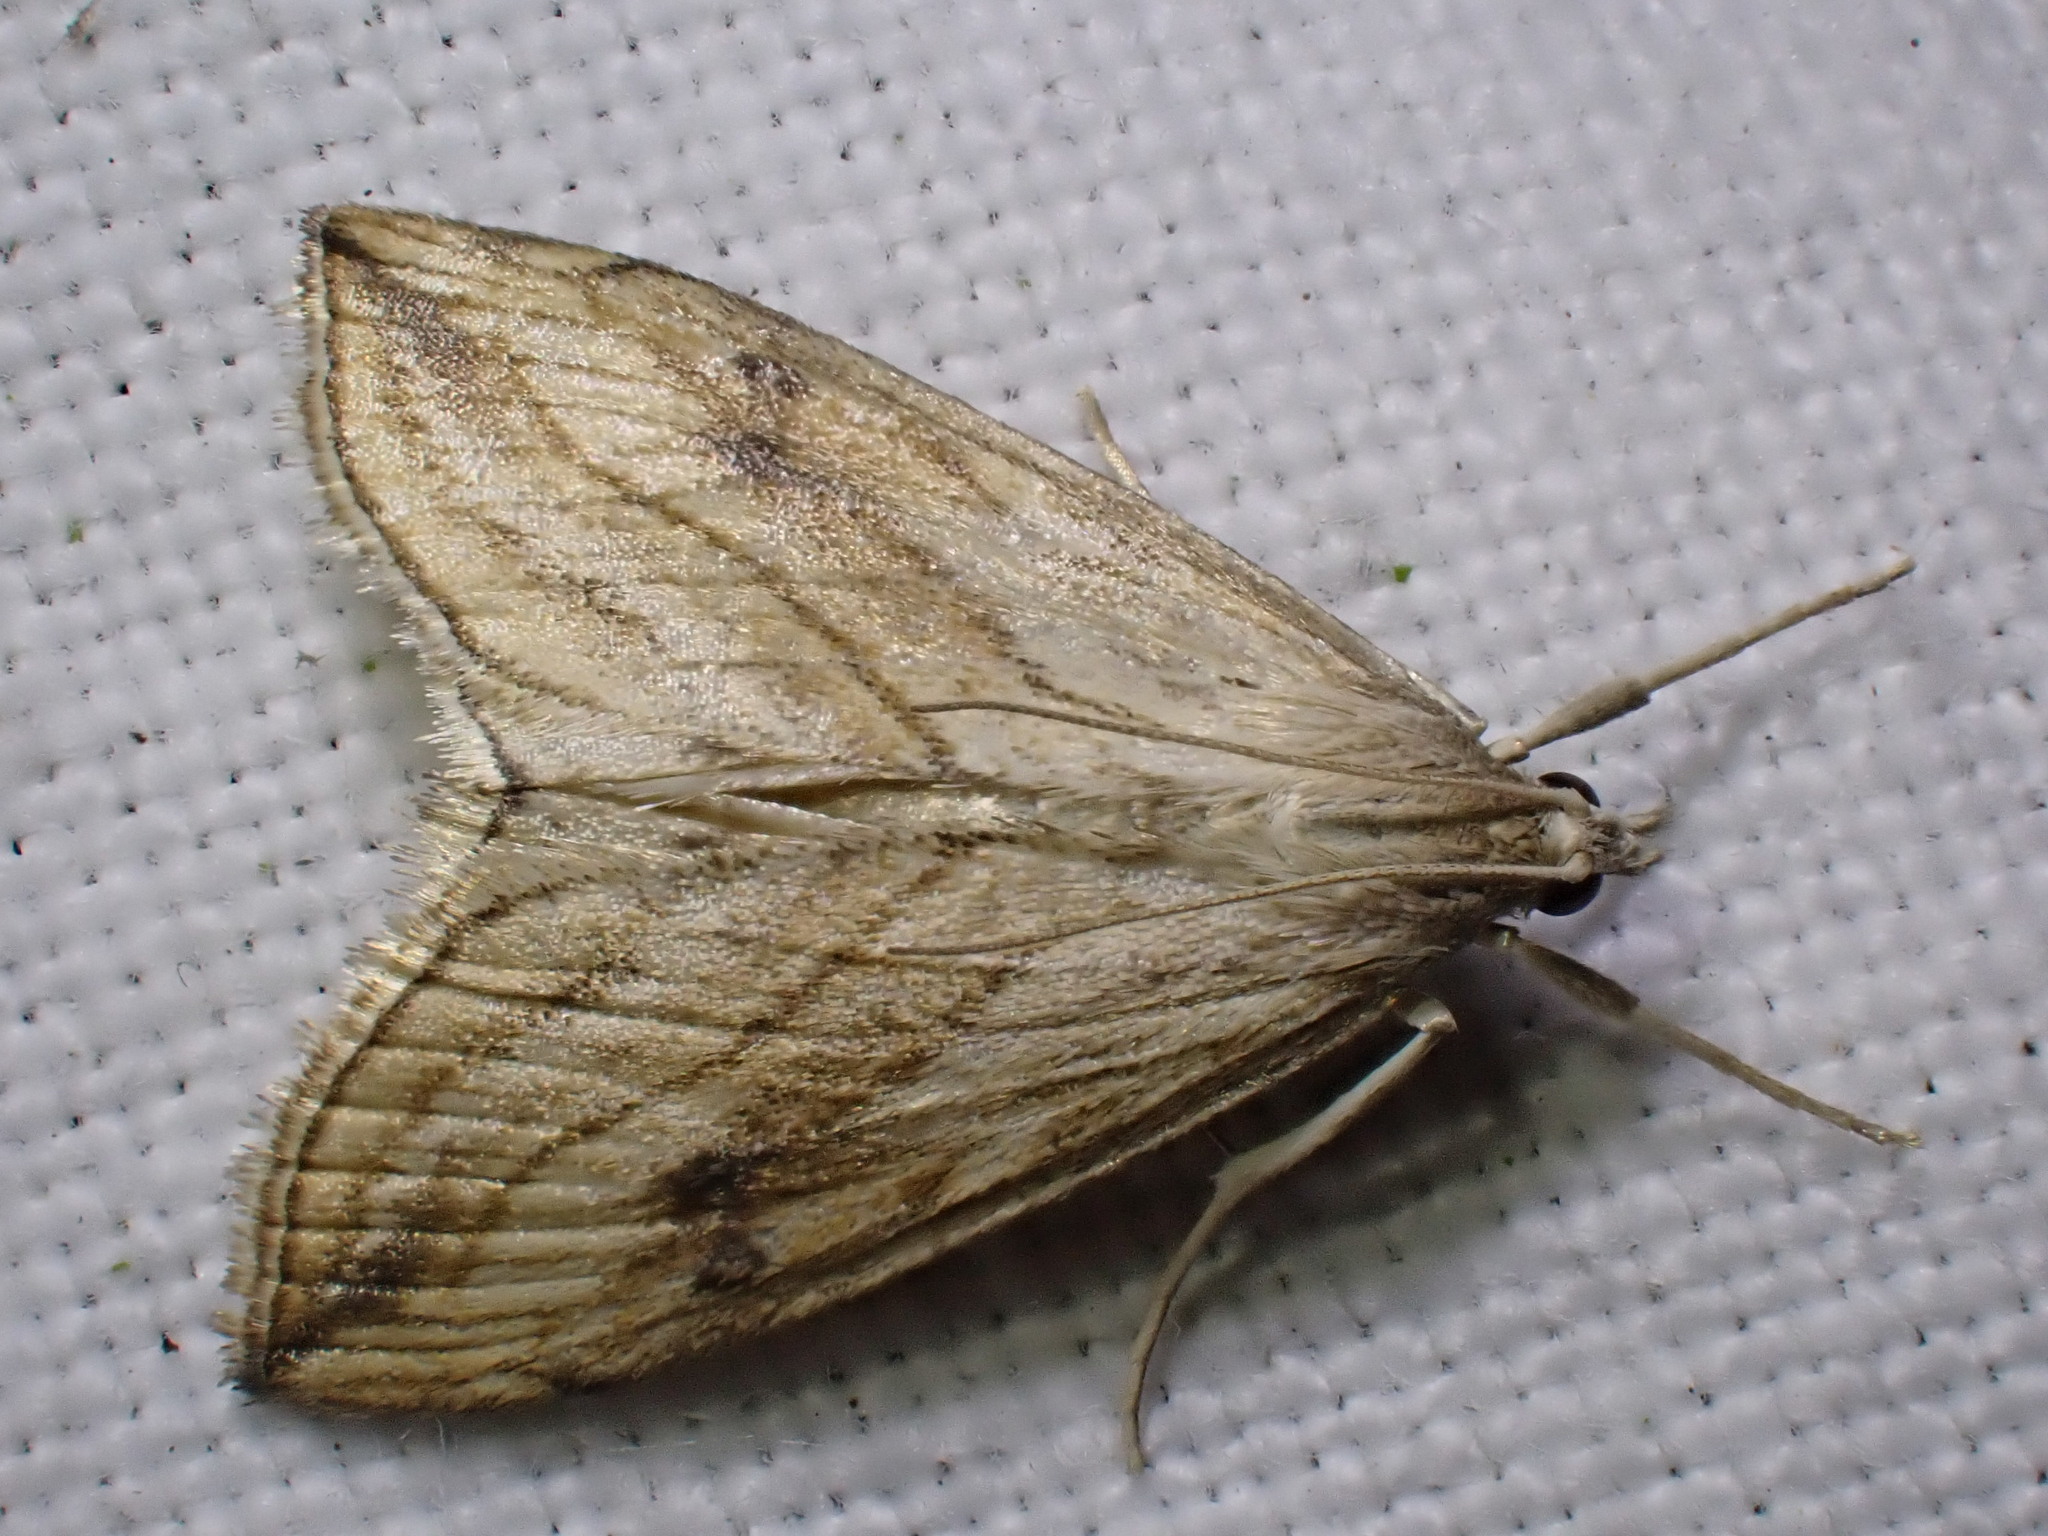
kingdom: Animalia
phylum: Arthropoda
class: Insecta
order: Lepidoptera
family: Crambidae
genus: Evergestis
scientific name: Evergestis forficalis
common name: Garden pebble
